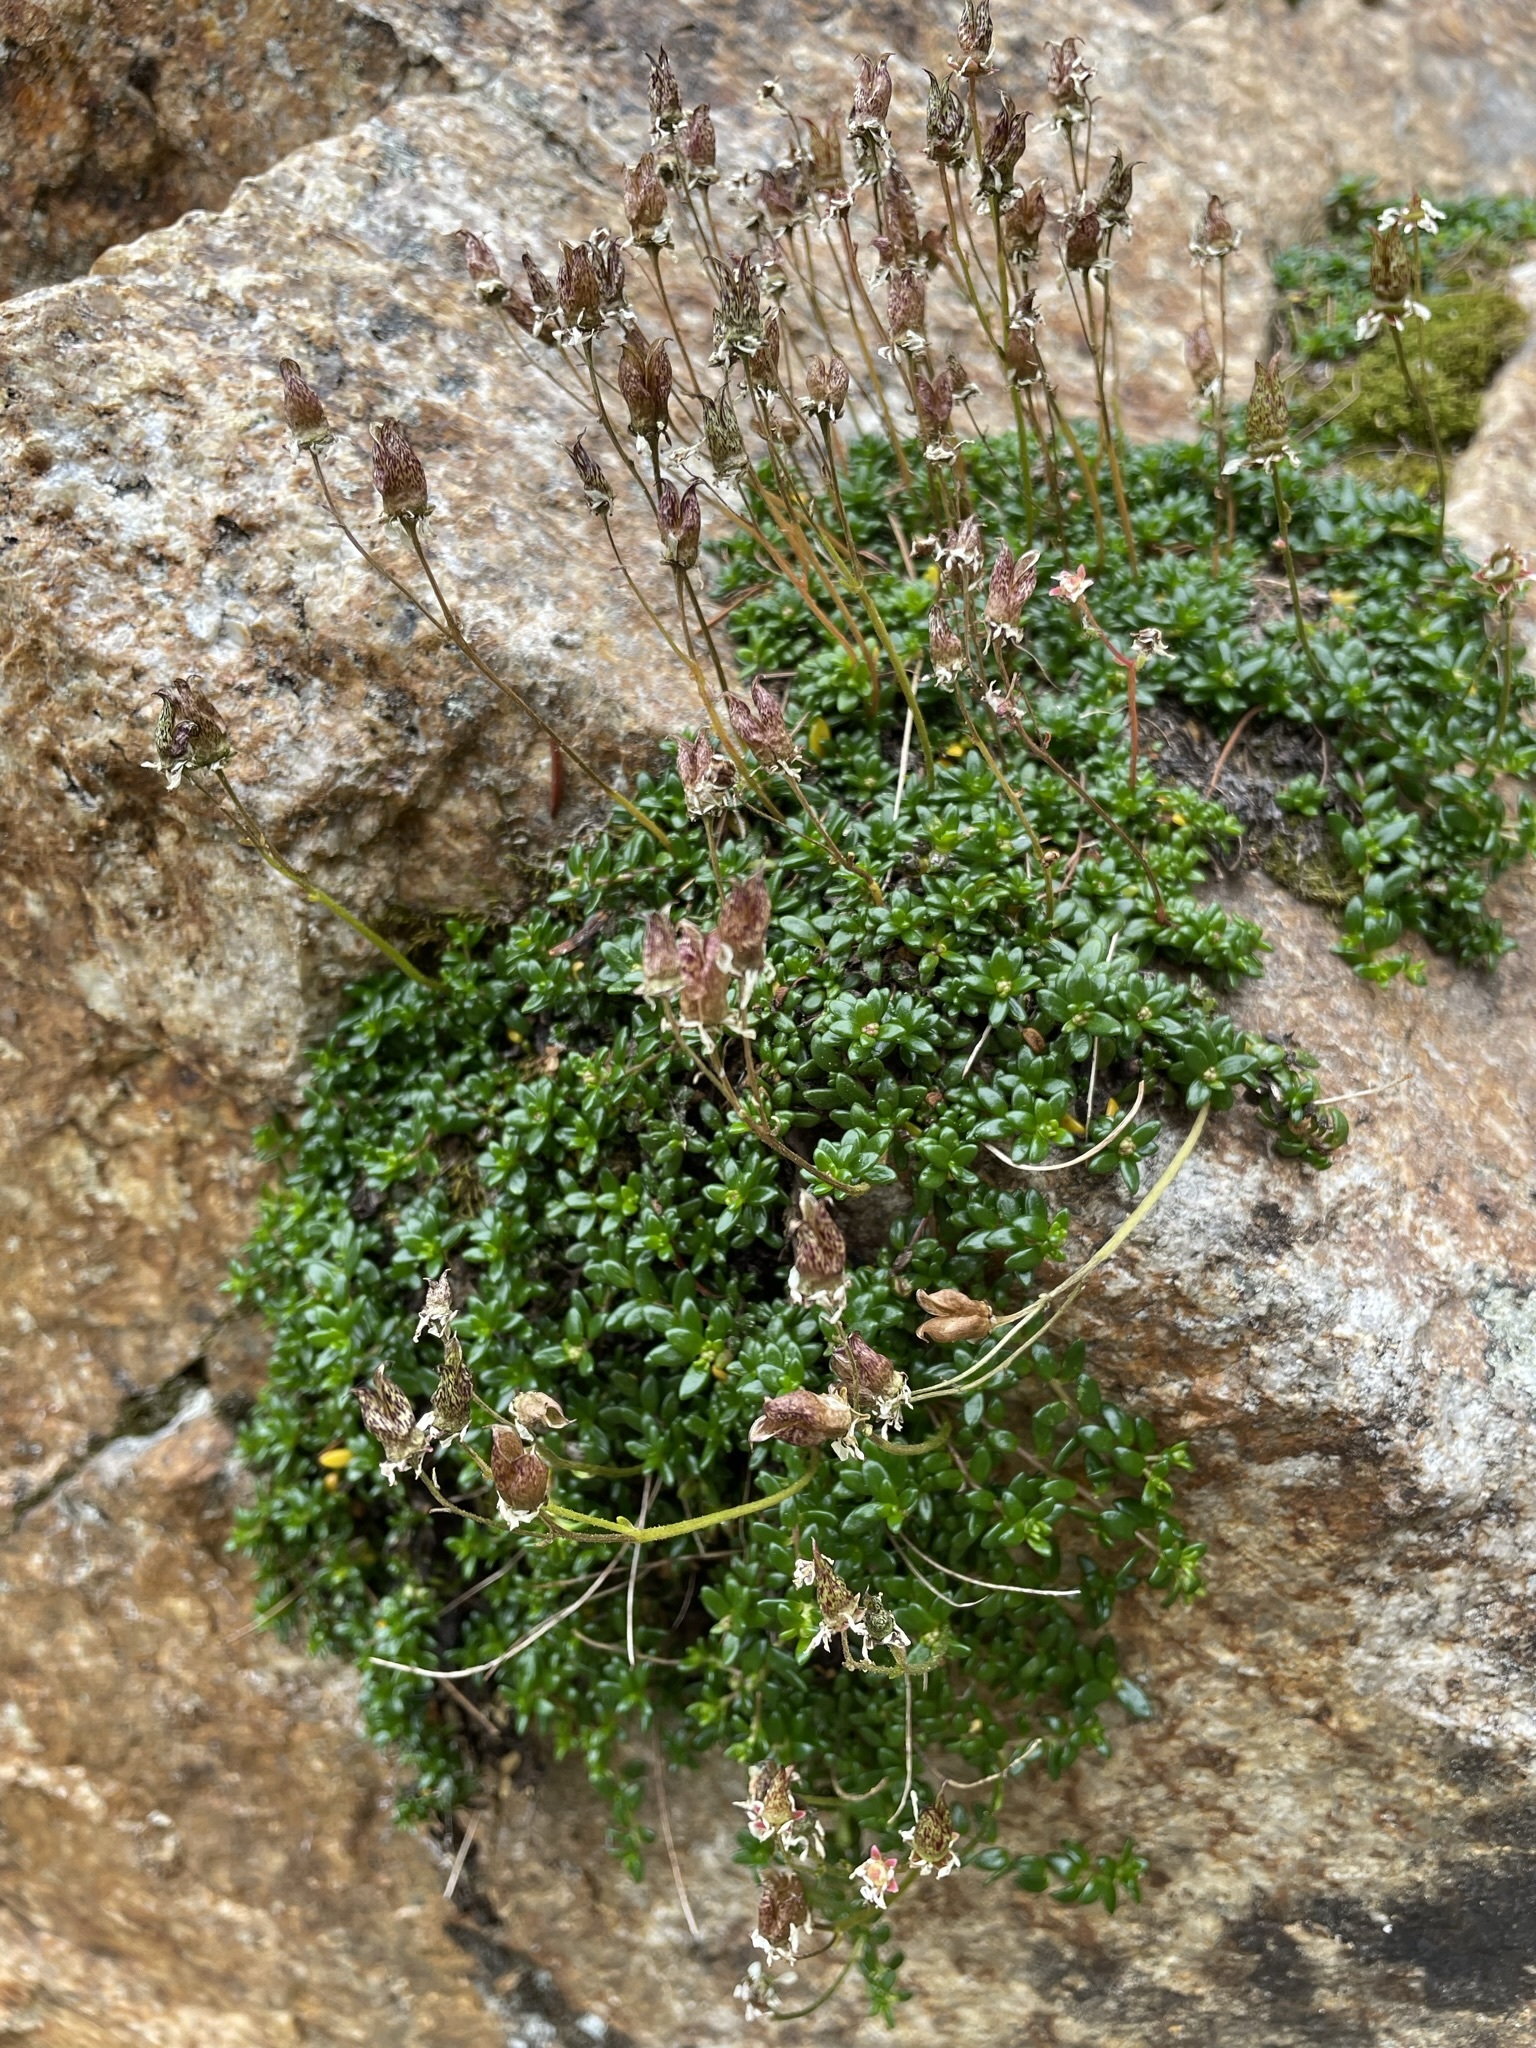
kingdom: Plantae
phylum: Tracheophyta
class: Magnoliopsida
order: Saxifragales
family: Saxifragaceae
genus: Micranthes
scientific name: Micranthes tolmiei
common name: Tolmie's saxifrage
